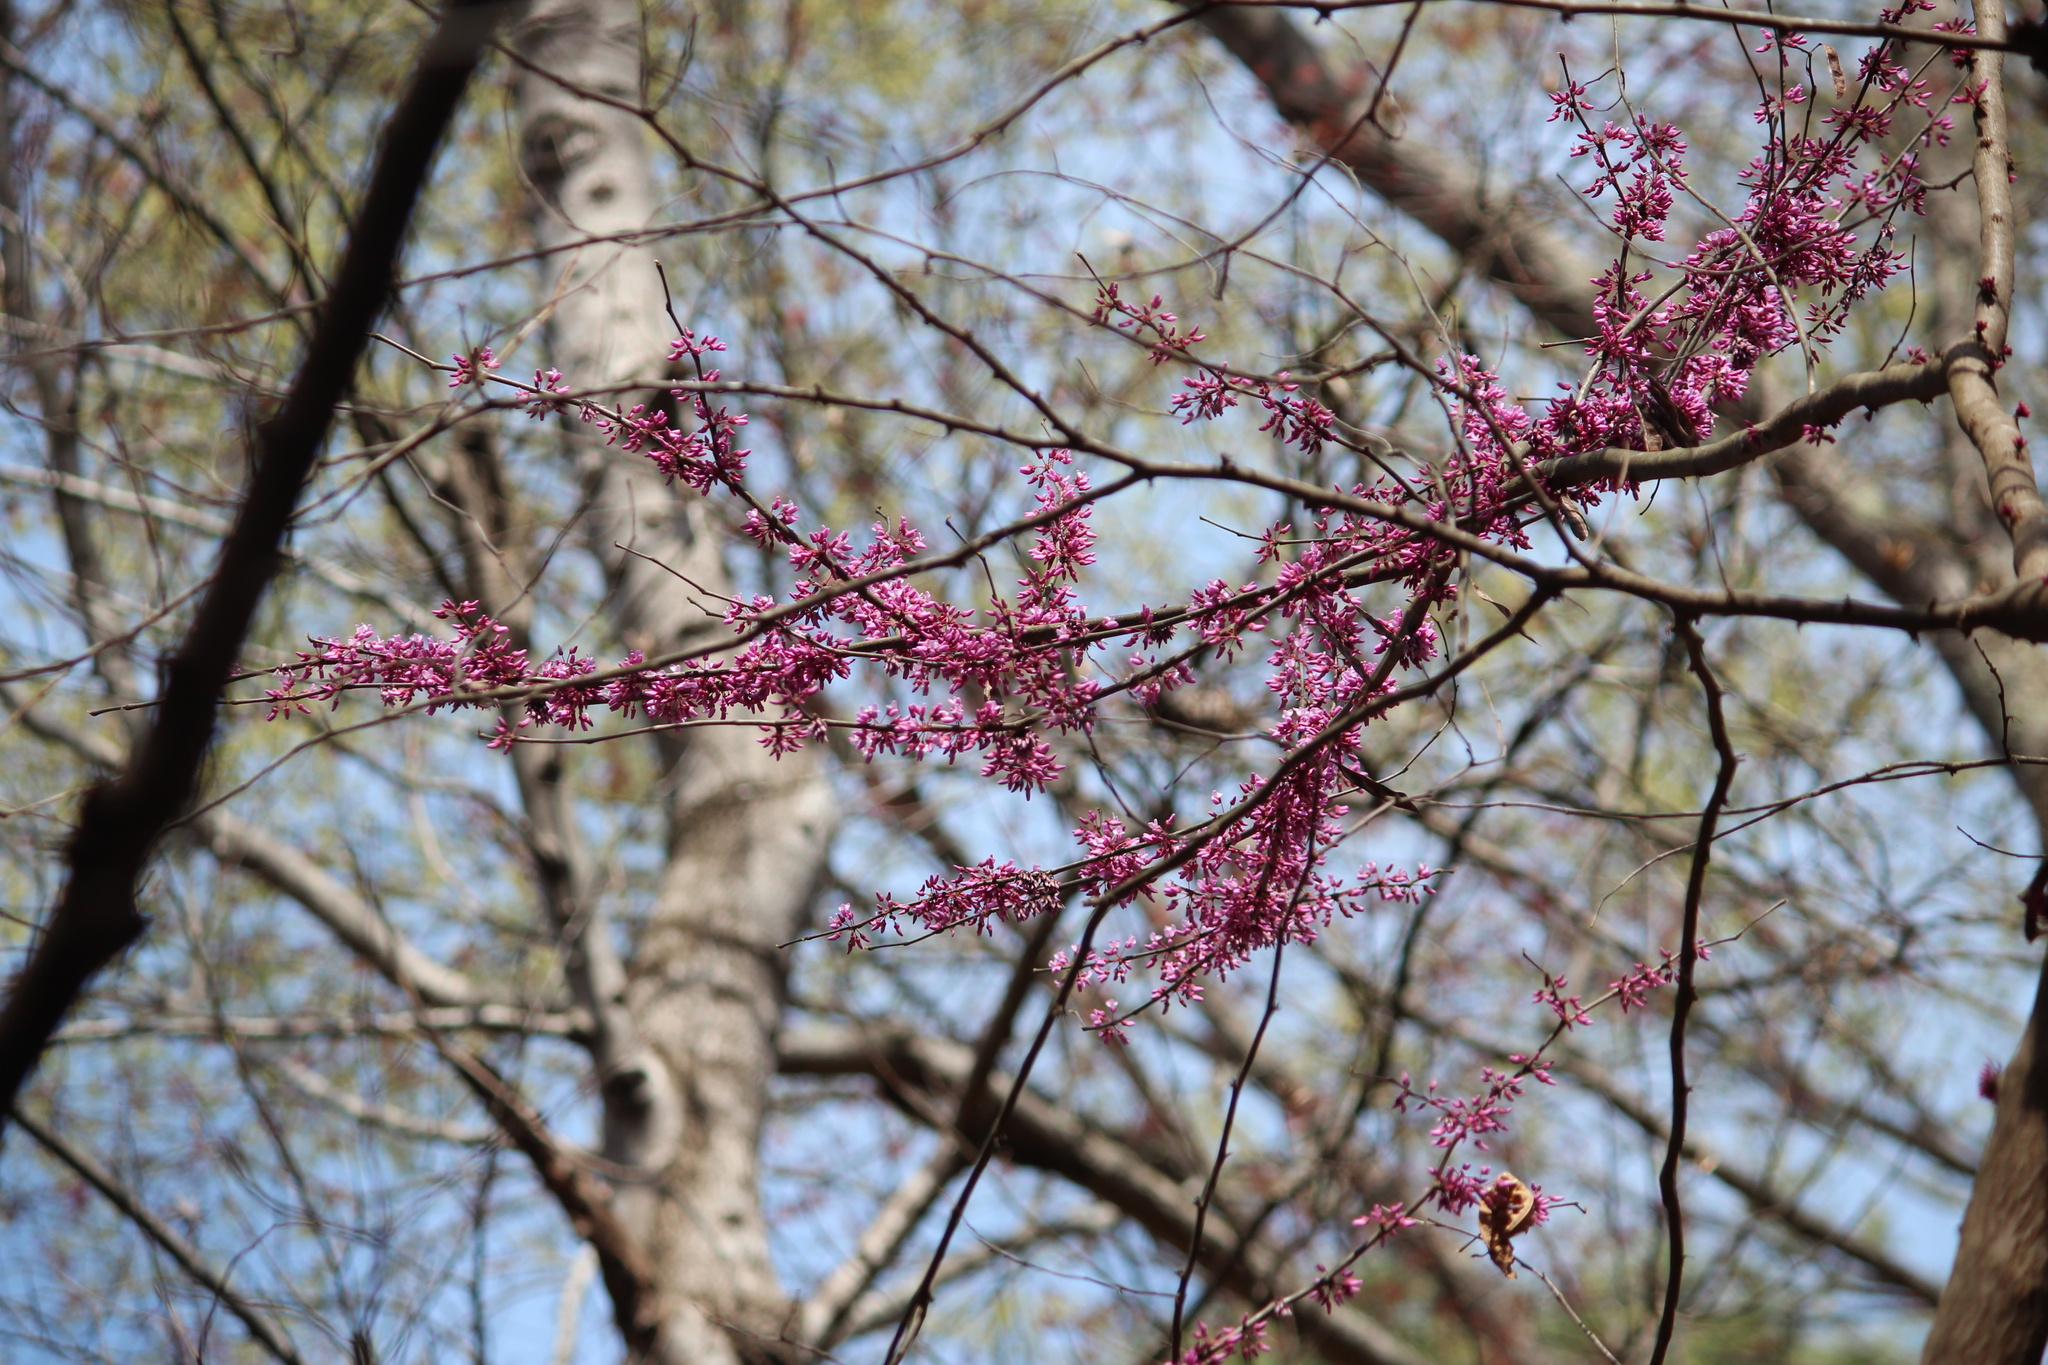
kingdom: Plantae
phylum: Tracheophyta
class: Magnoliopsida
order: Fabales
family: Fabaceae
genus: Cercis
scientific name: Cercis canadensis
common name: Eastern redbud
